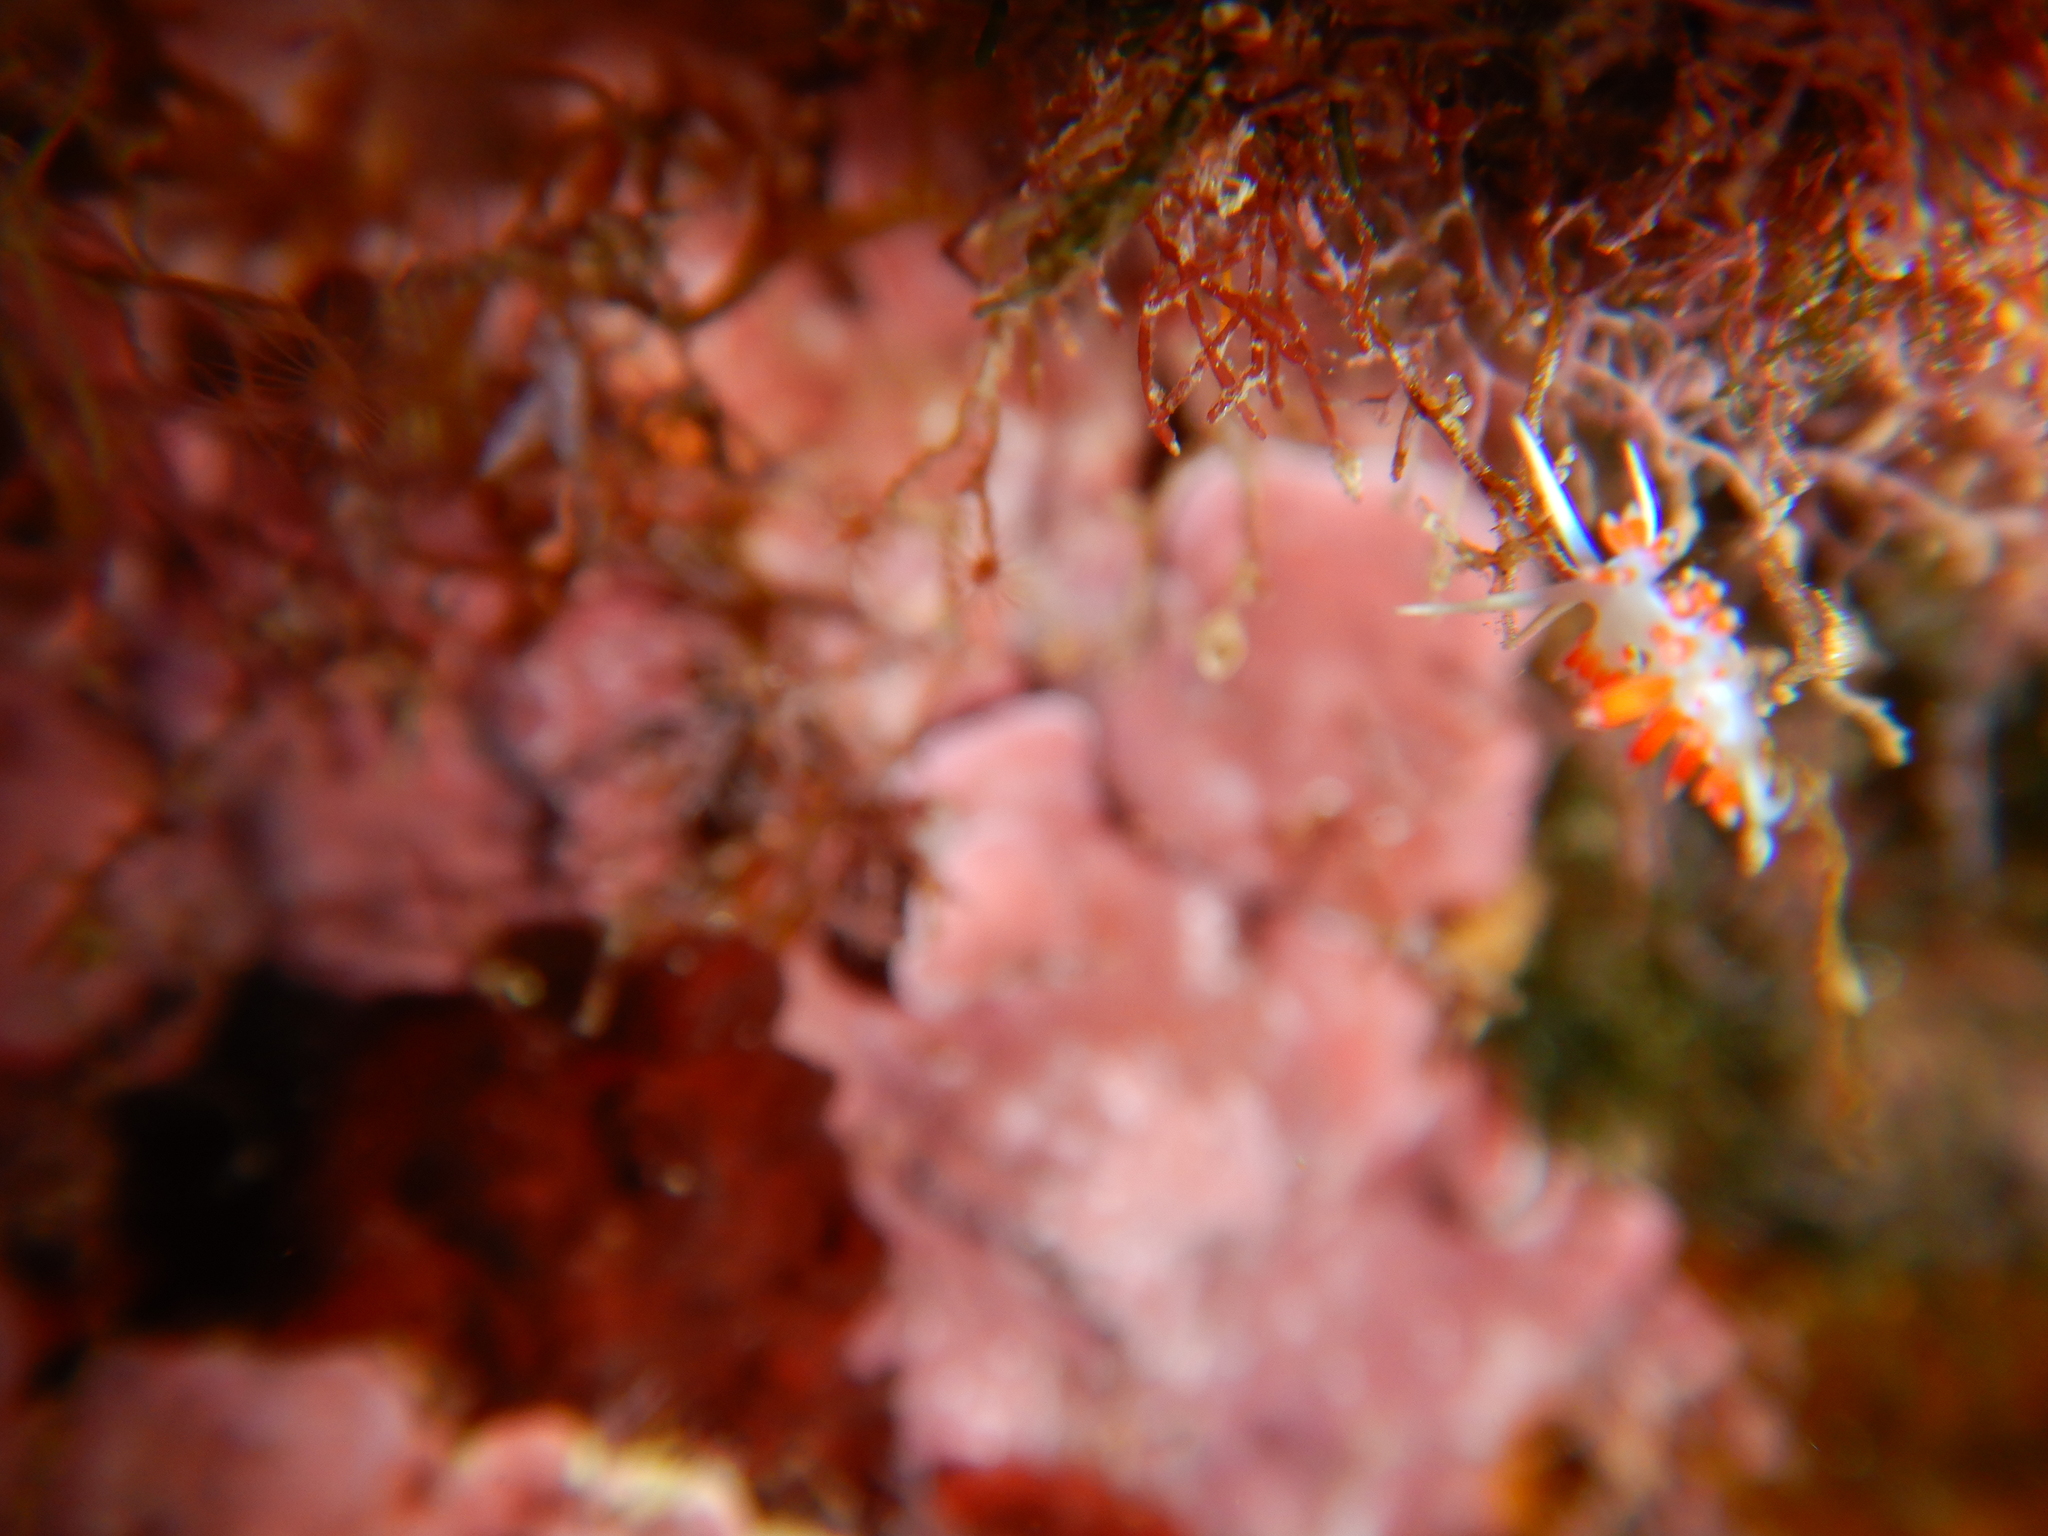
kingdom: Animalia
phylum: Mollusca
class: Gastropoda
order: Nudibranchia
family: Flabellinidae
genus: Calmella
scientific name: Calmella cavolini
